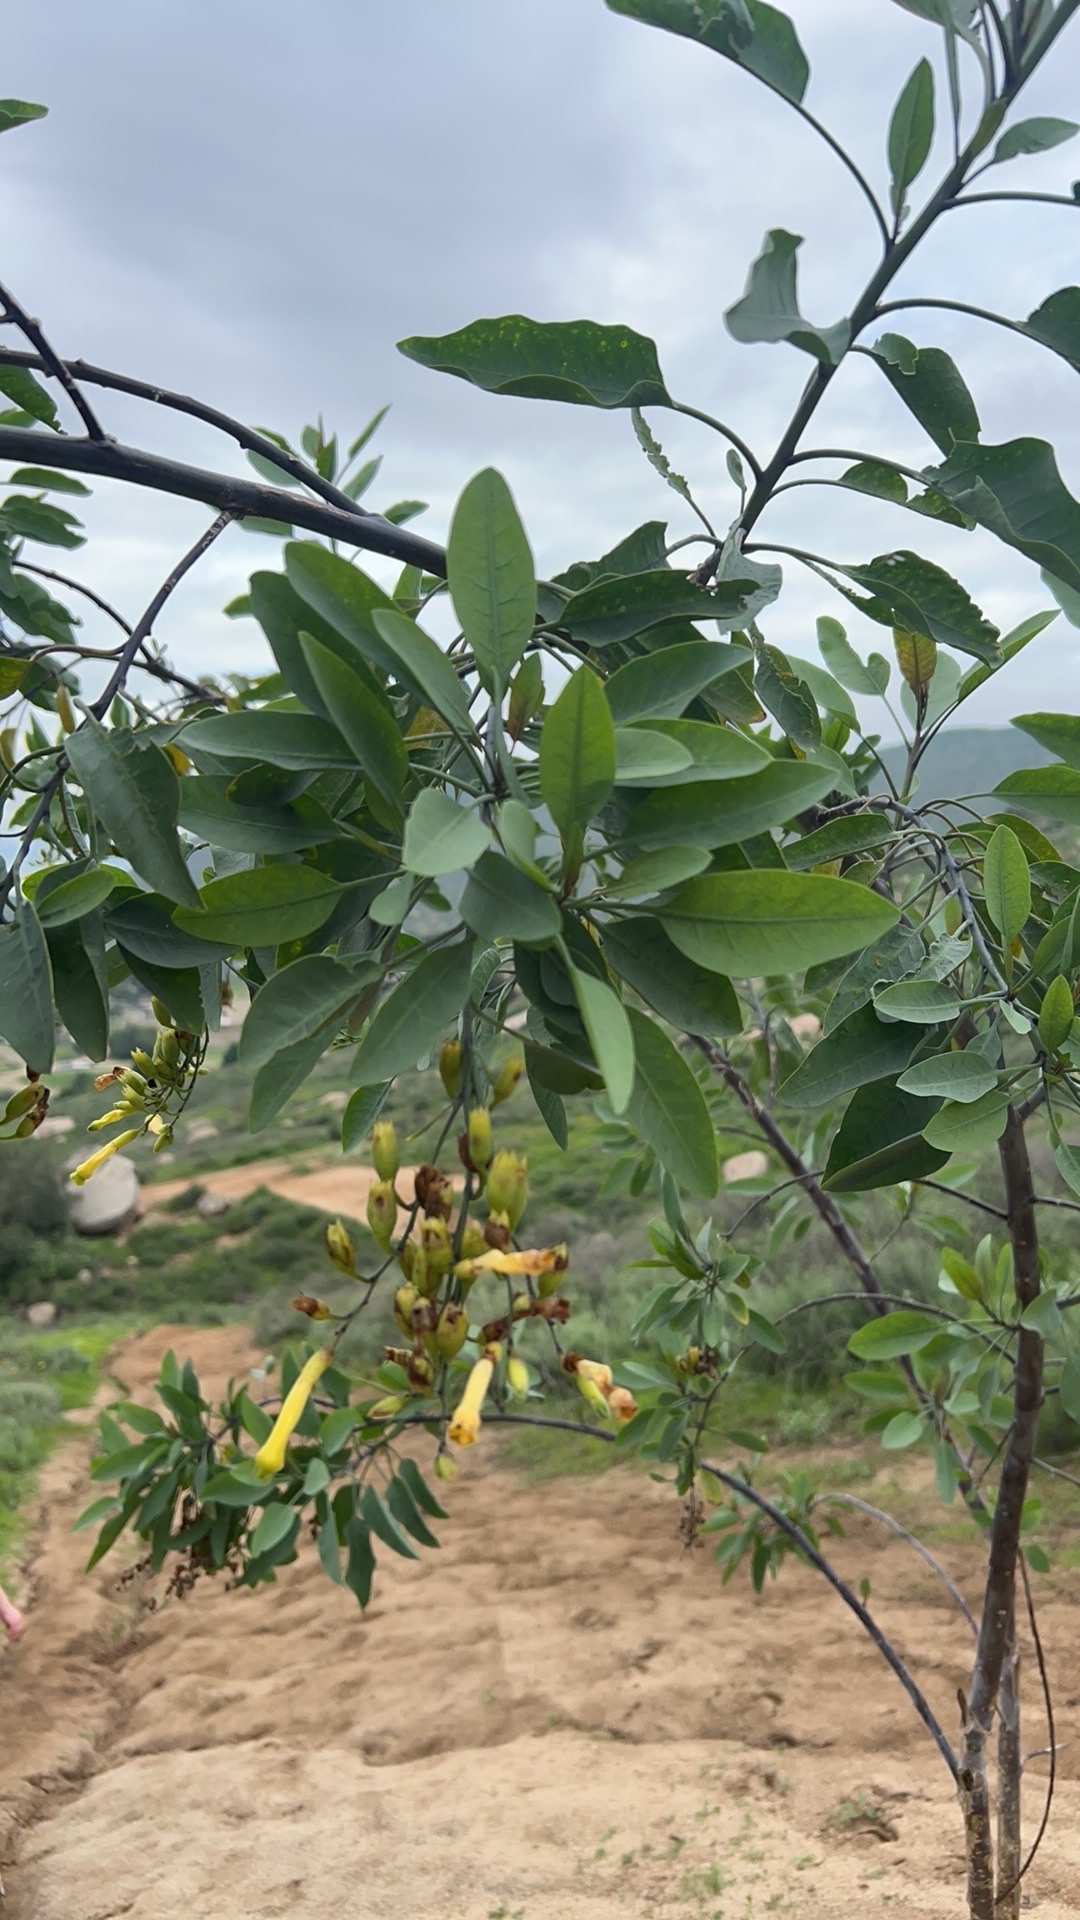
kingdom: Plantae
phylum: Tracheophyta
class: Magnoliopsida
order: Solanales
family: Solanaceae
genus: Nicotiana
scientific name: Nicotiana glauca
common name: Tree tobacco
